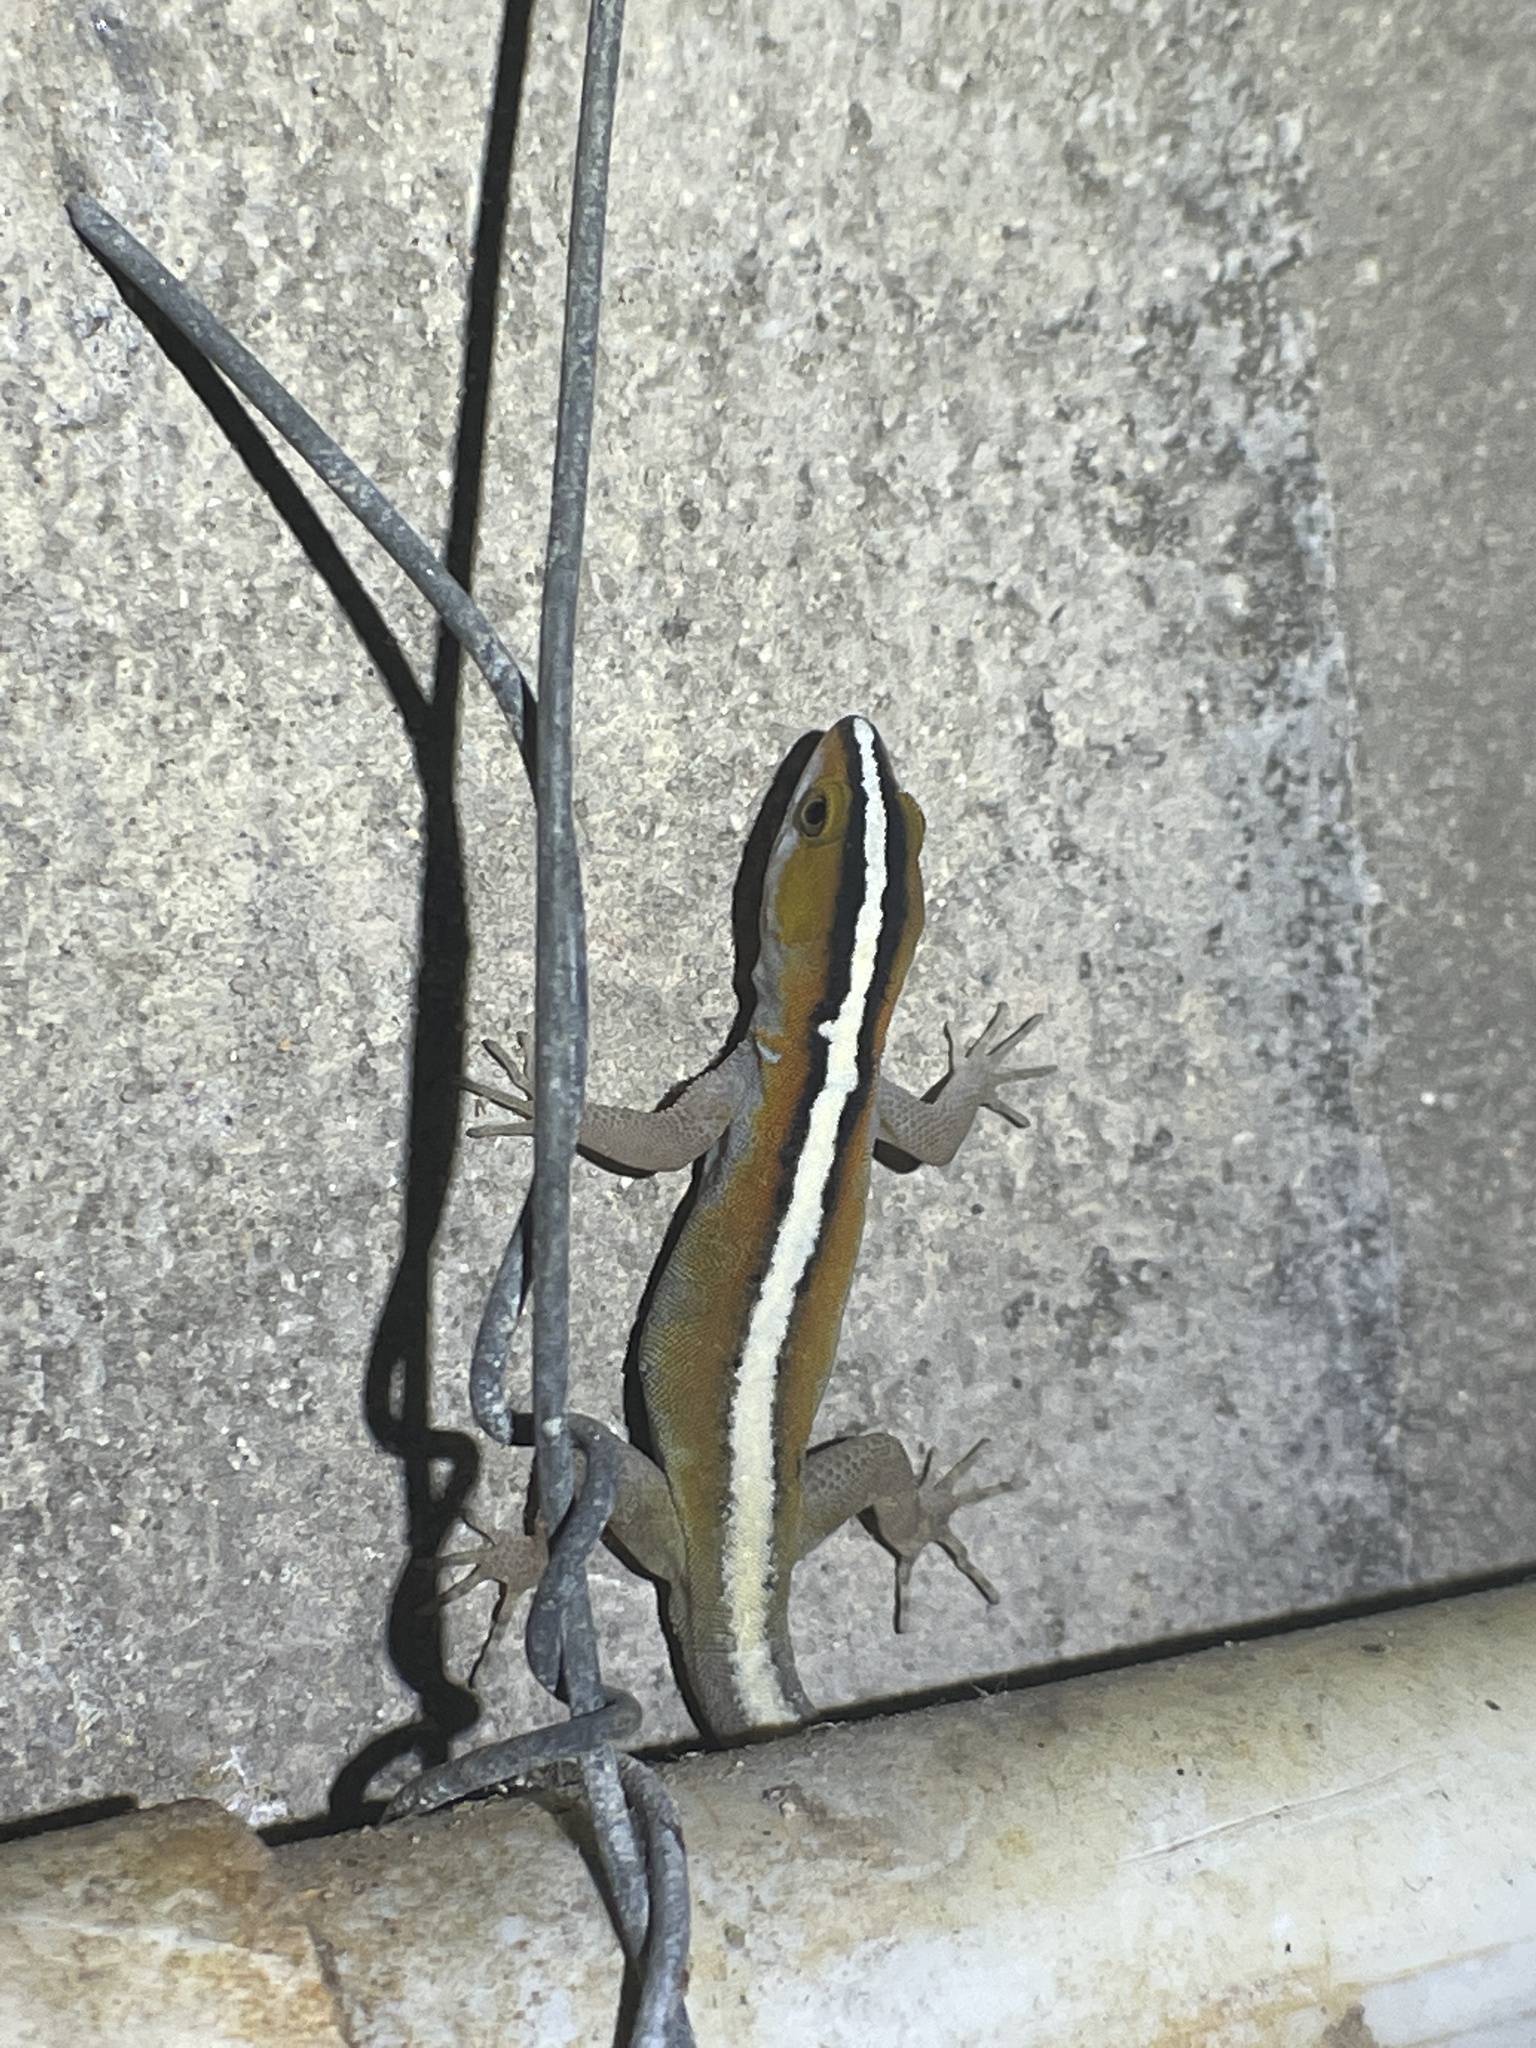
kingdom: Animalia
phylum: Chordata
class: Squamata
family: Sphaerodactylidae
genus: Gonatodes
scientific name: Gonatodes vittatus
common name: Wiegmann's striped gecko
